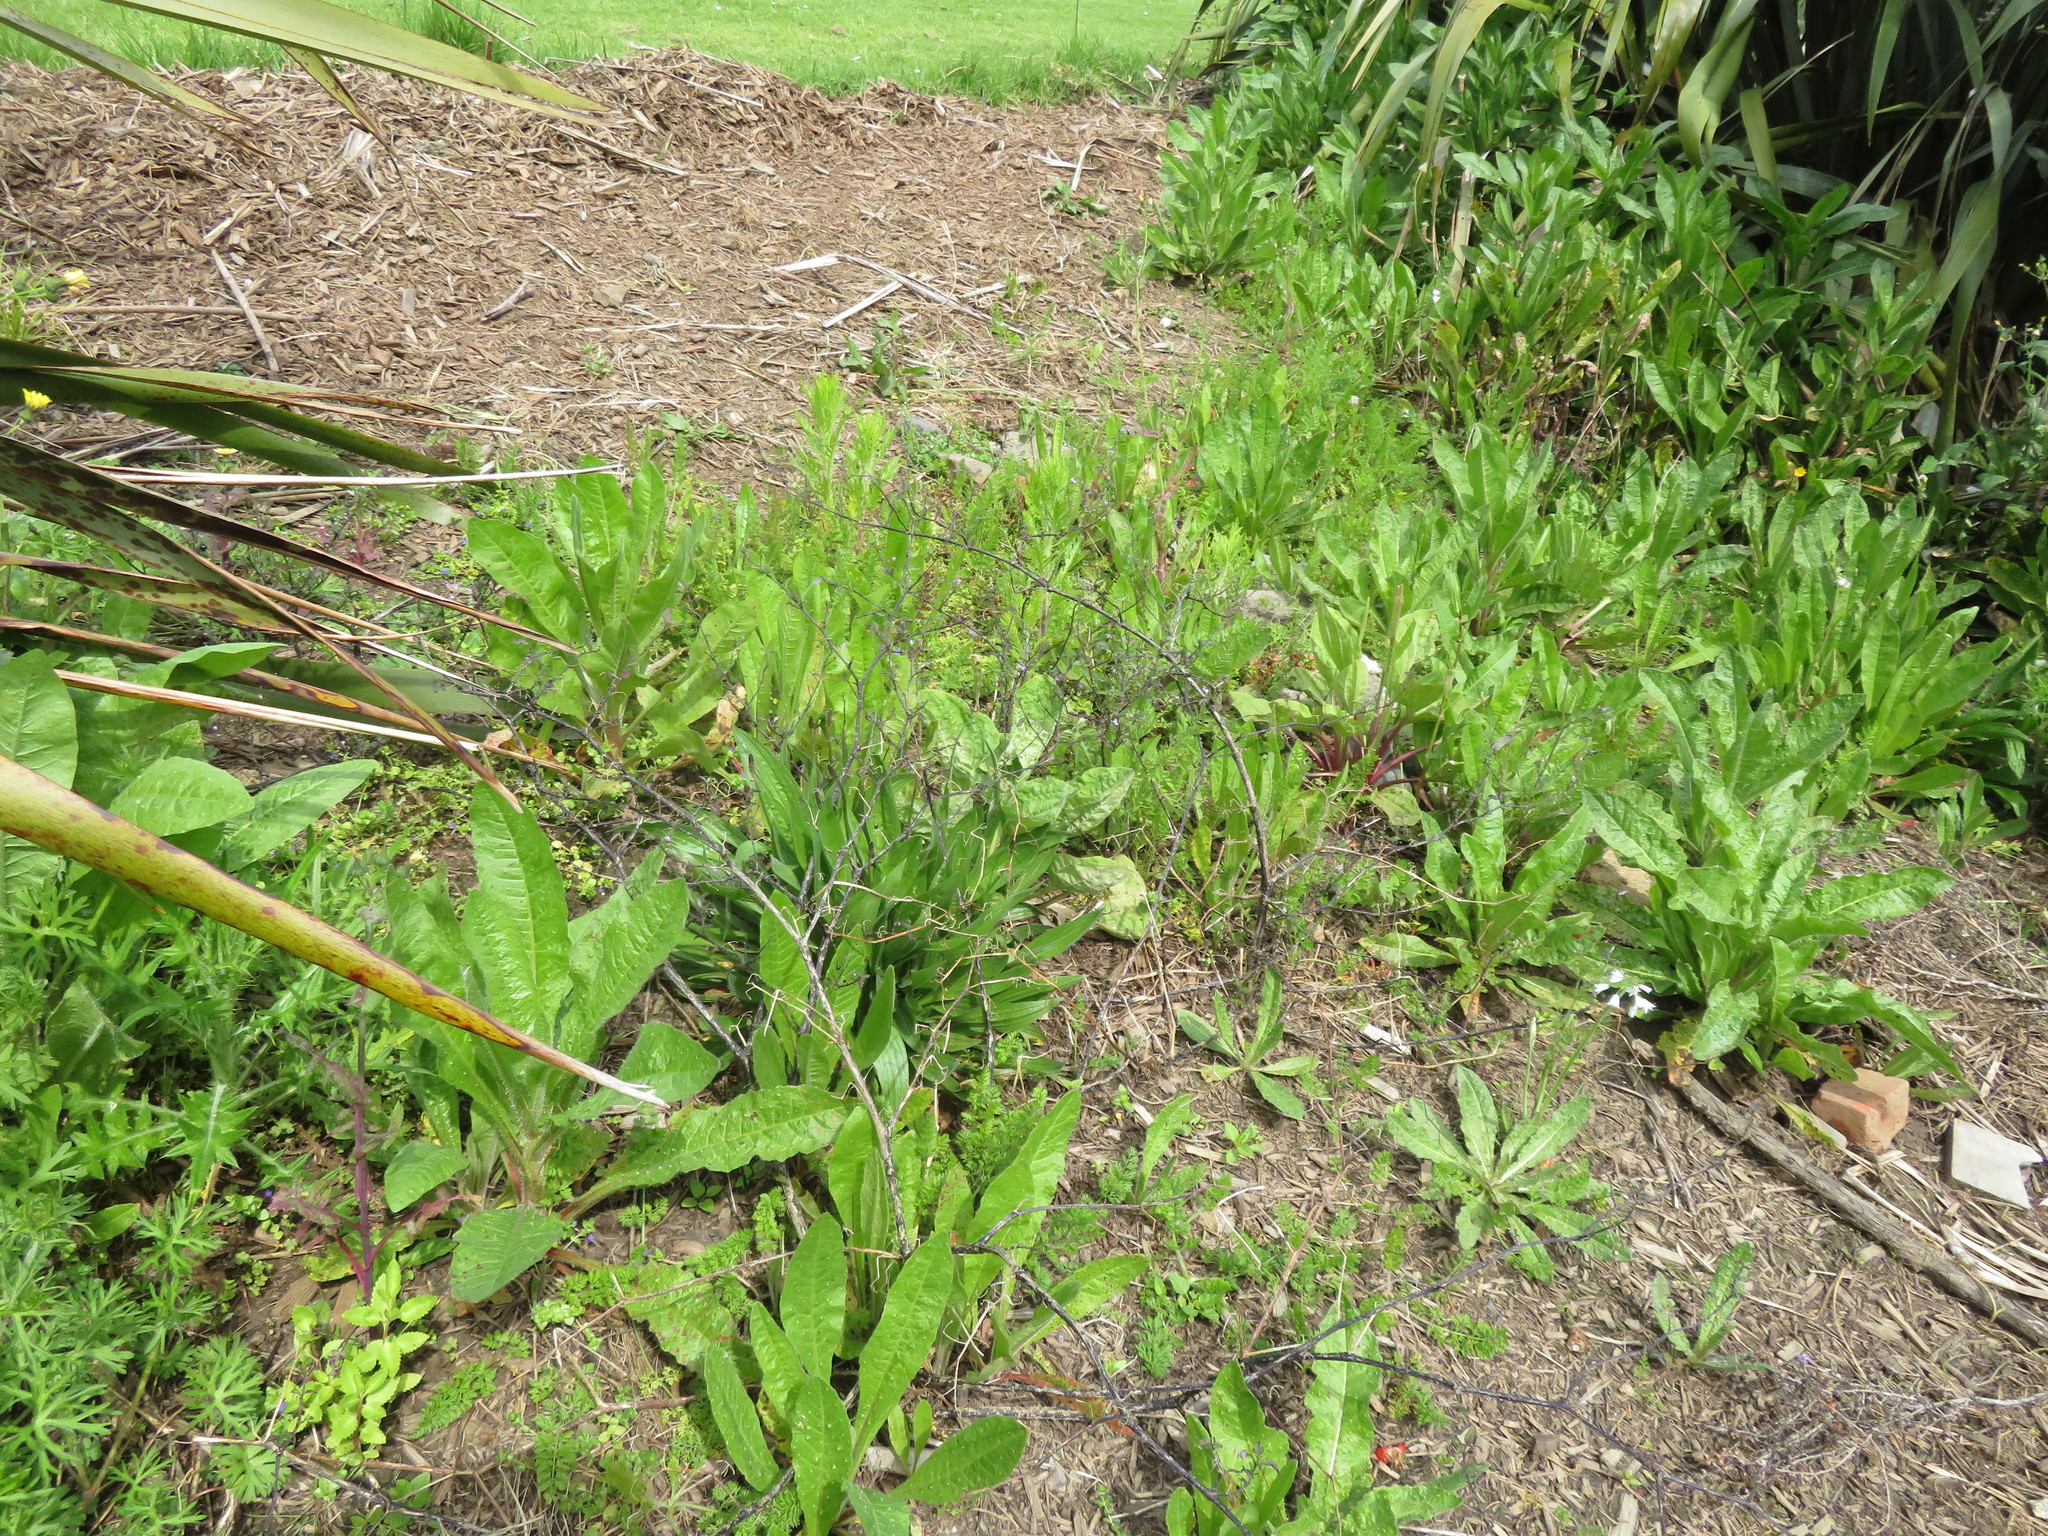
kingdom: Plantae
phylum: Tracheophyta
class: Magnoliopsida
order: Solanales
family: Solanaceae
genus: Solanum
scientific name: Solanum opacum
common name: Green-berry nightshade
